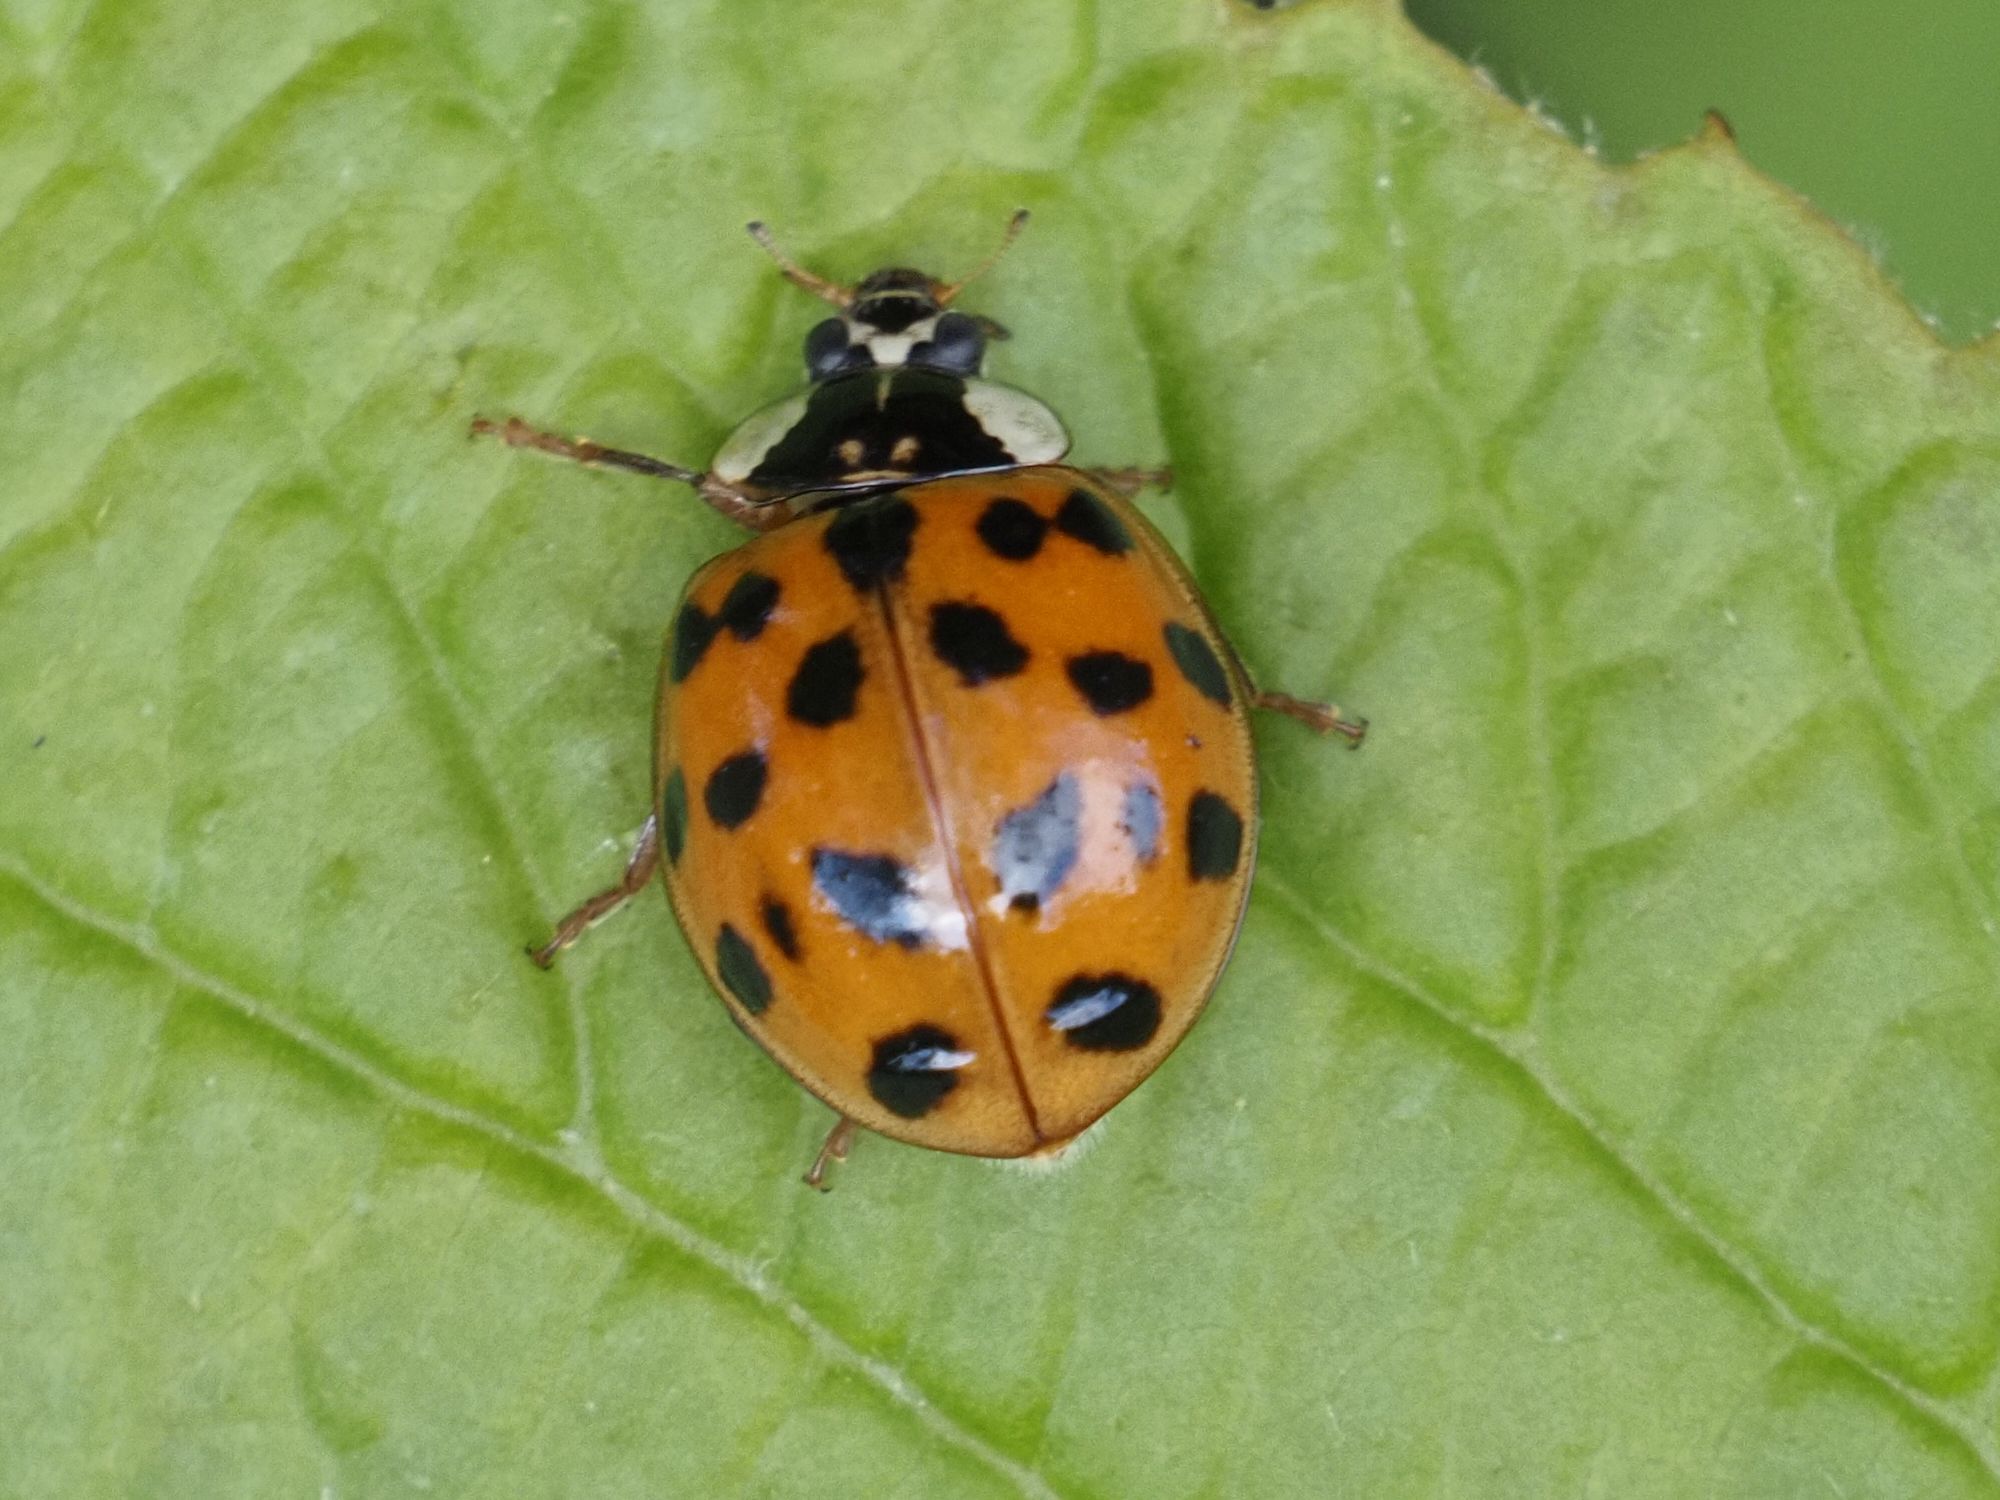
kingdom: Animalia
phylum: Arthropoda
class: Insecta
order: Coleoptera
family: Coccinellidae
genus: Harmonia
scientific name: Harmonia axyridis
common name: Harlequin ladybird
